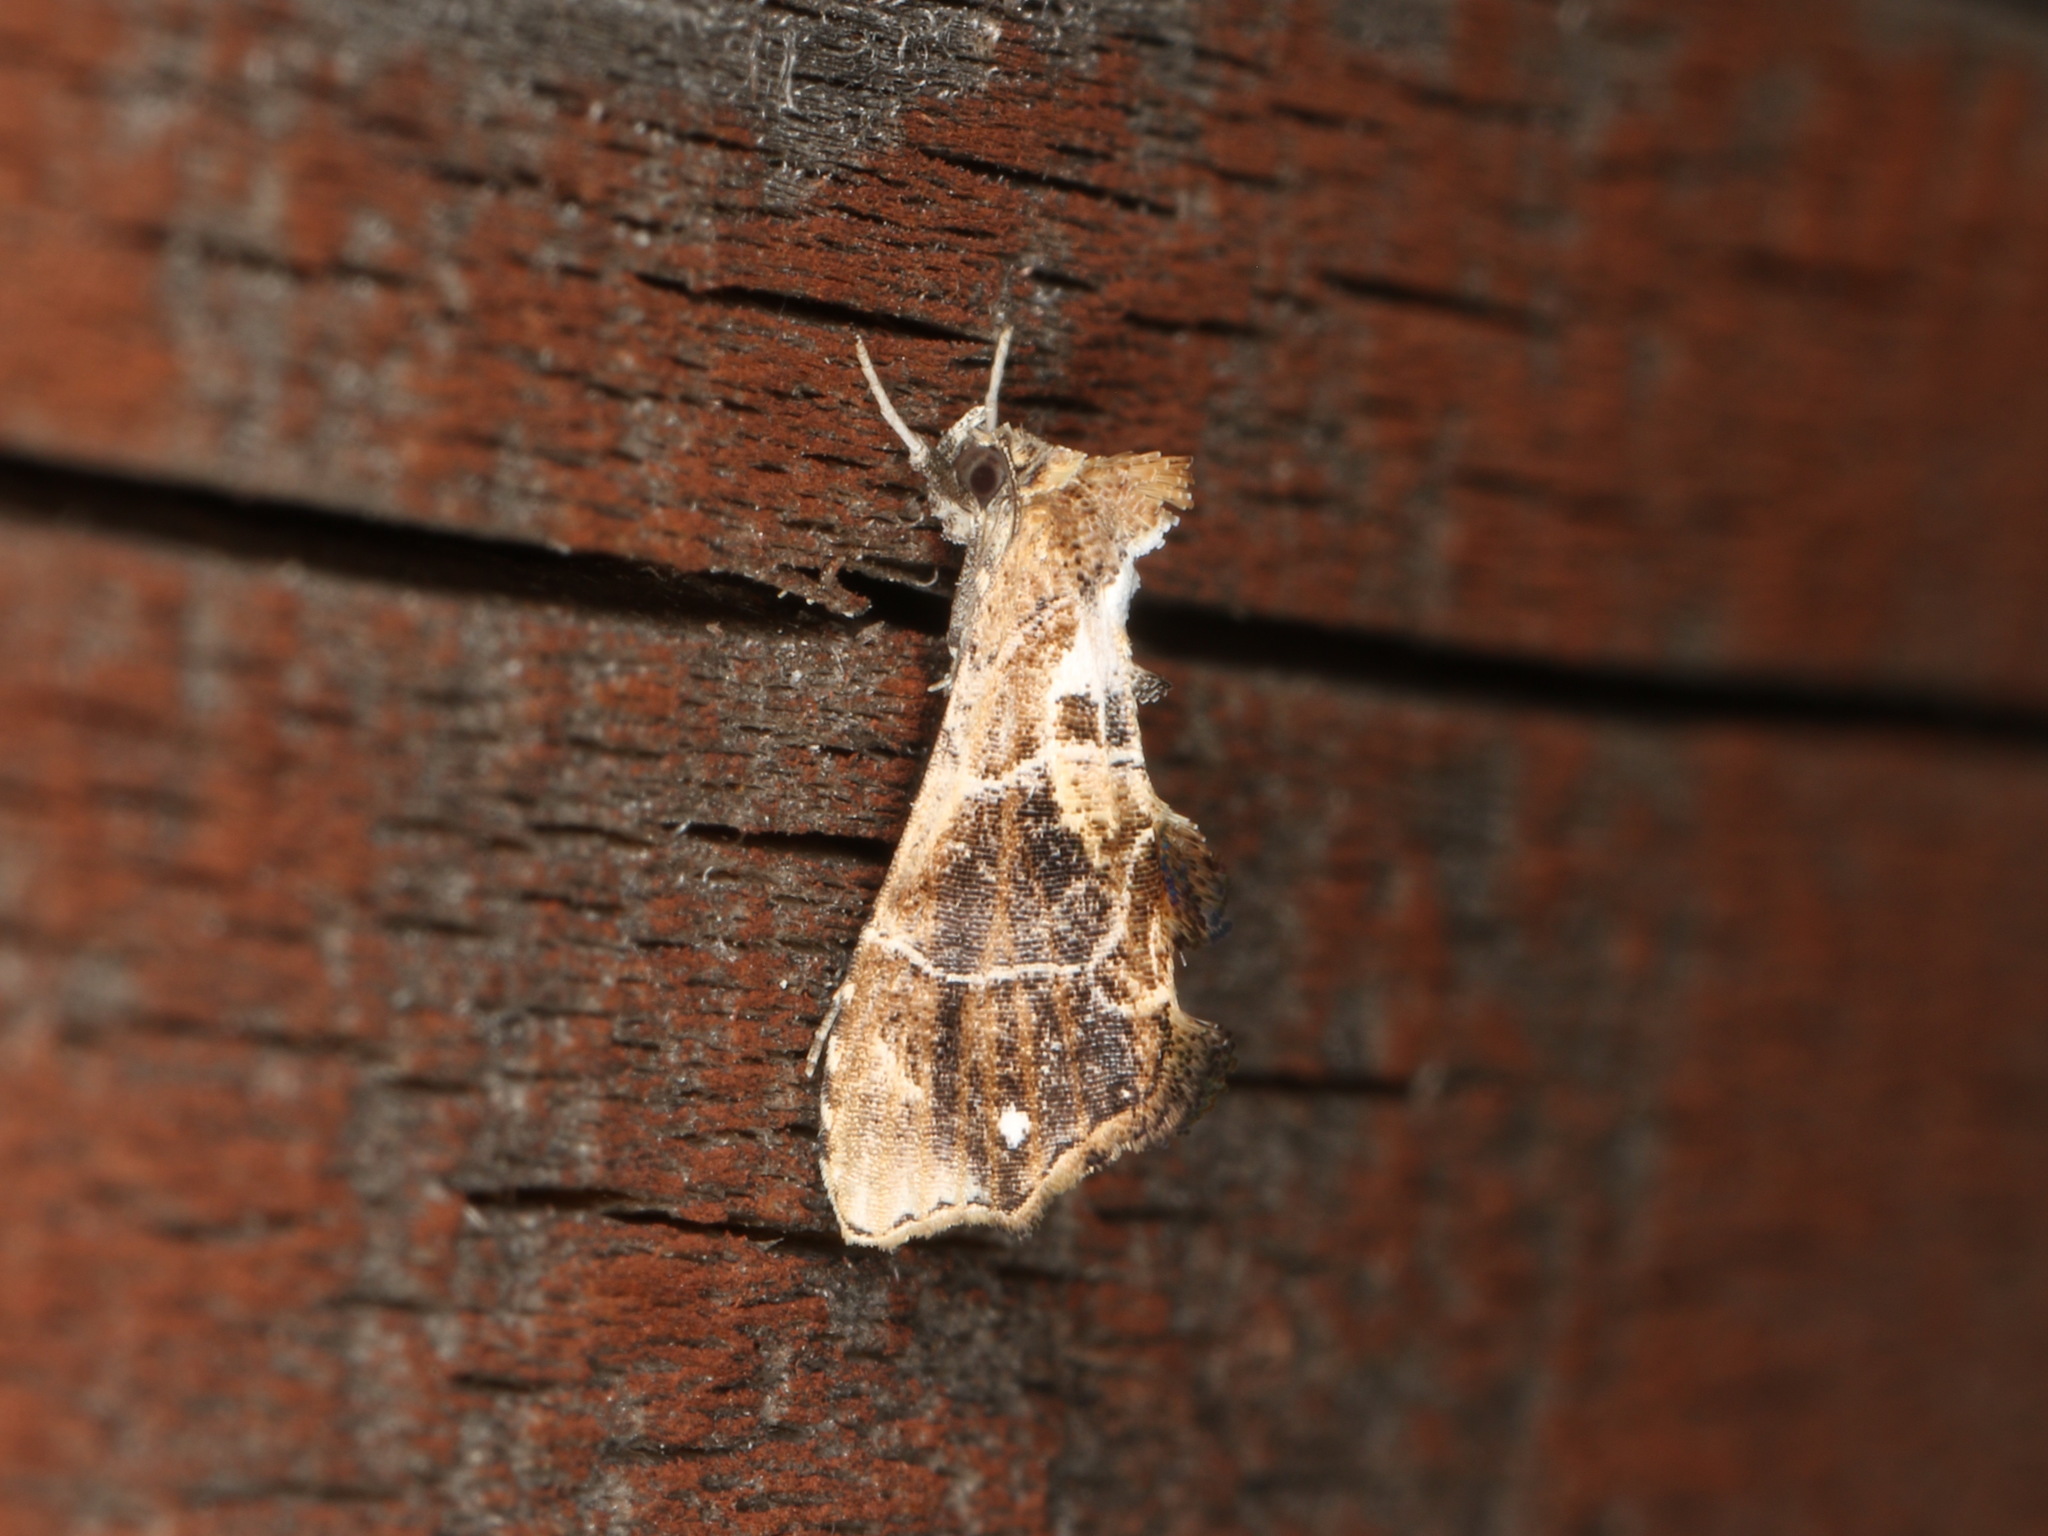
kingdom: Animalia
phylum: Arthropoda
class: Insecta
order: Lepidoptera
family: Erebidae
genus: Arrade
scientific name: Arrade leucocosmalis
